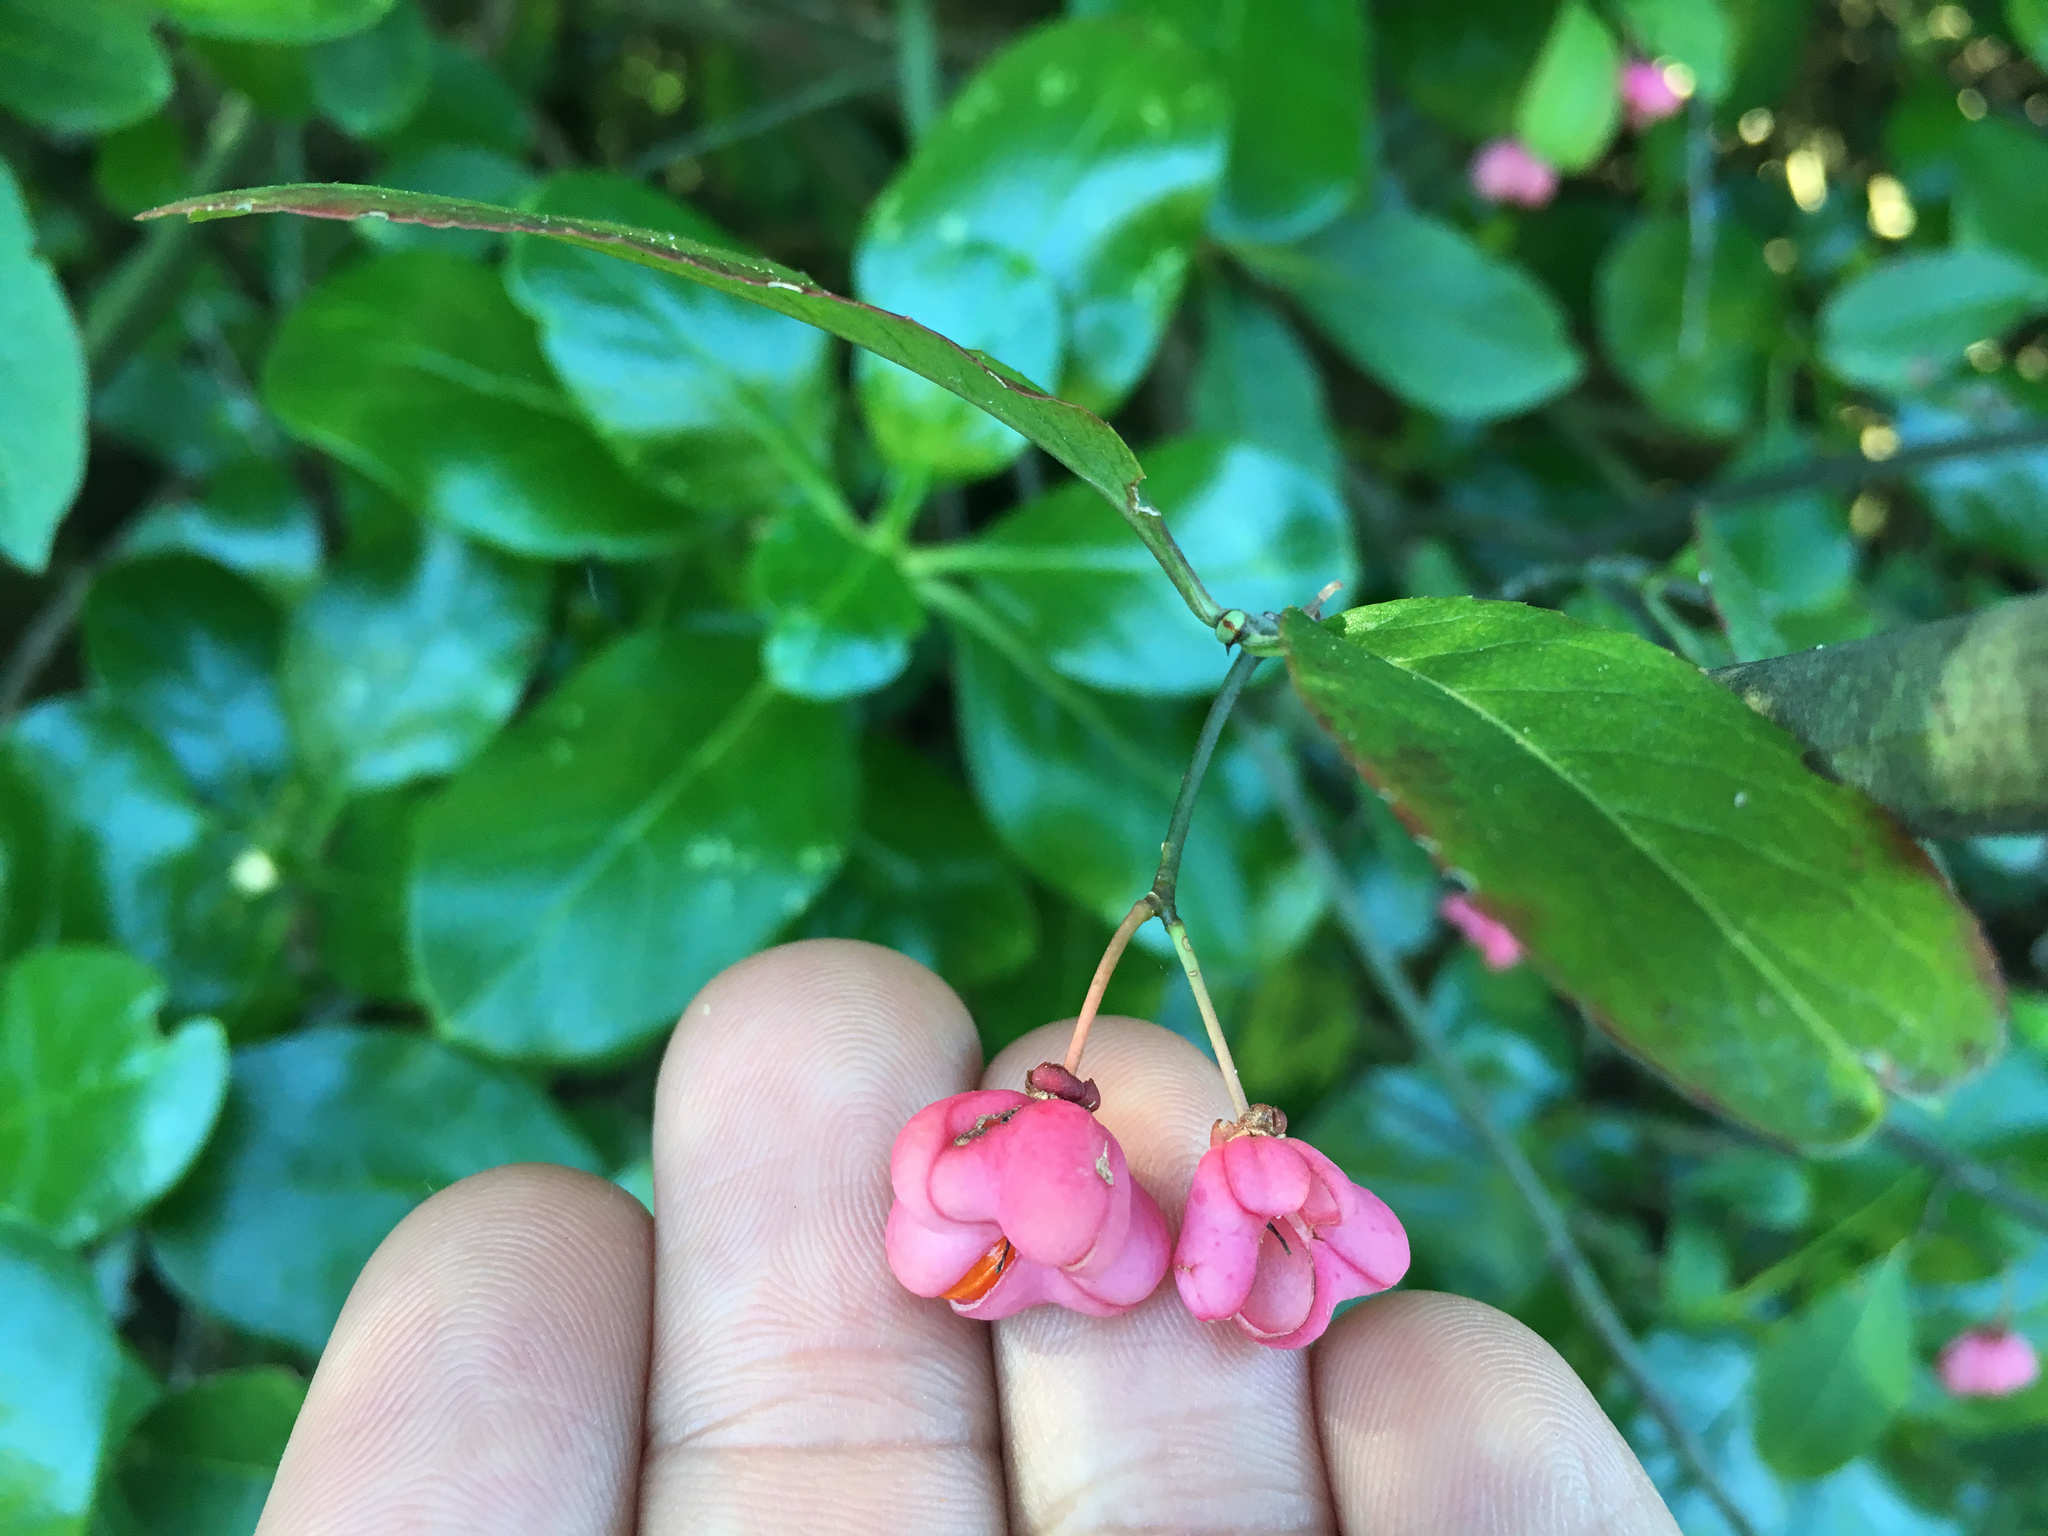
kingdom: Plantae
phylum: Tracheophyta
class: Magnoliopsida
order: Celastrales
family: Celastraceae
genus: Euonymus
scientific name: Euonymus europaeus
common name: Spindle
